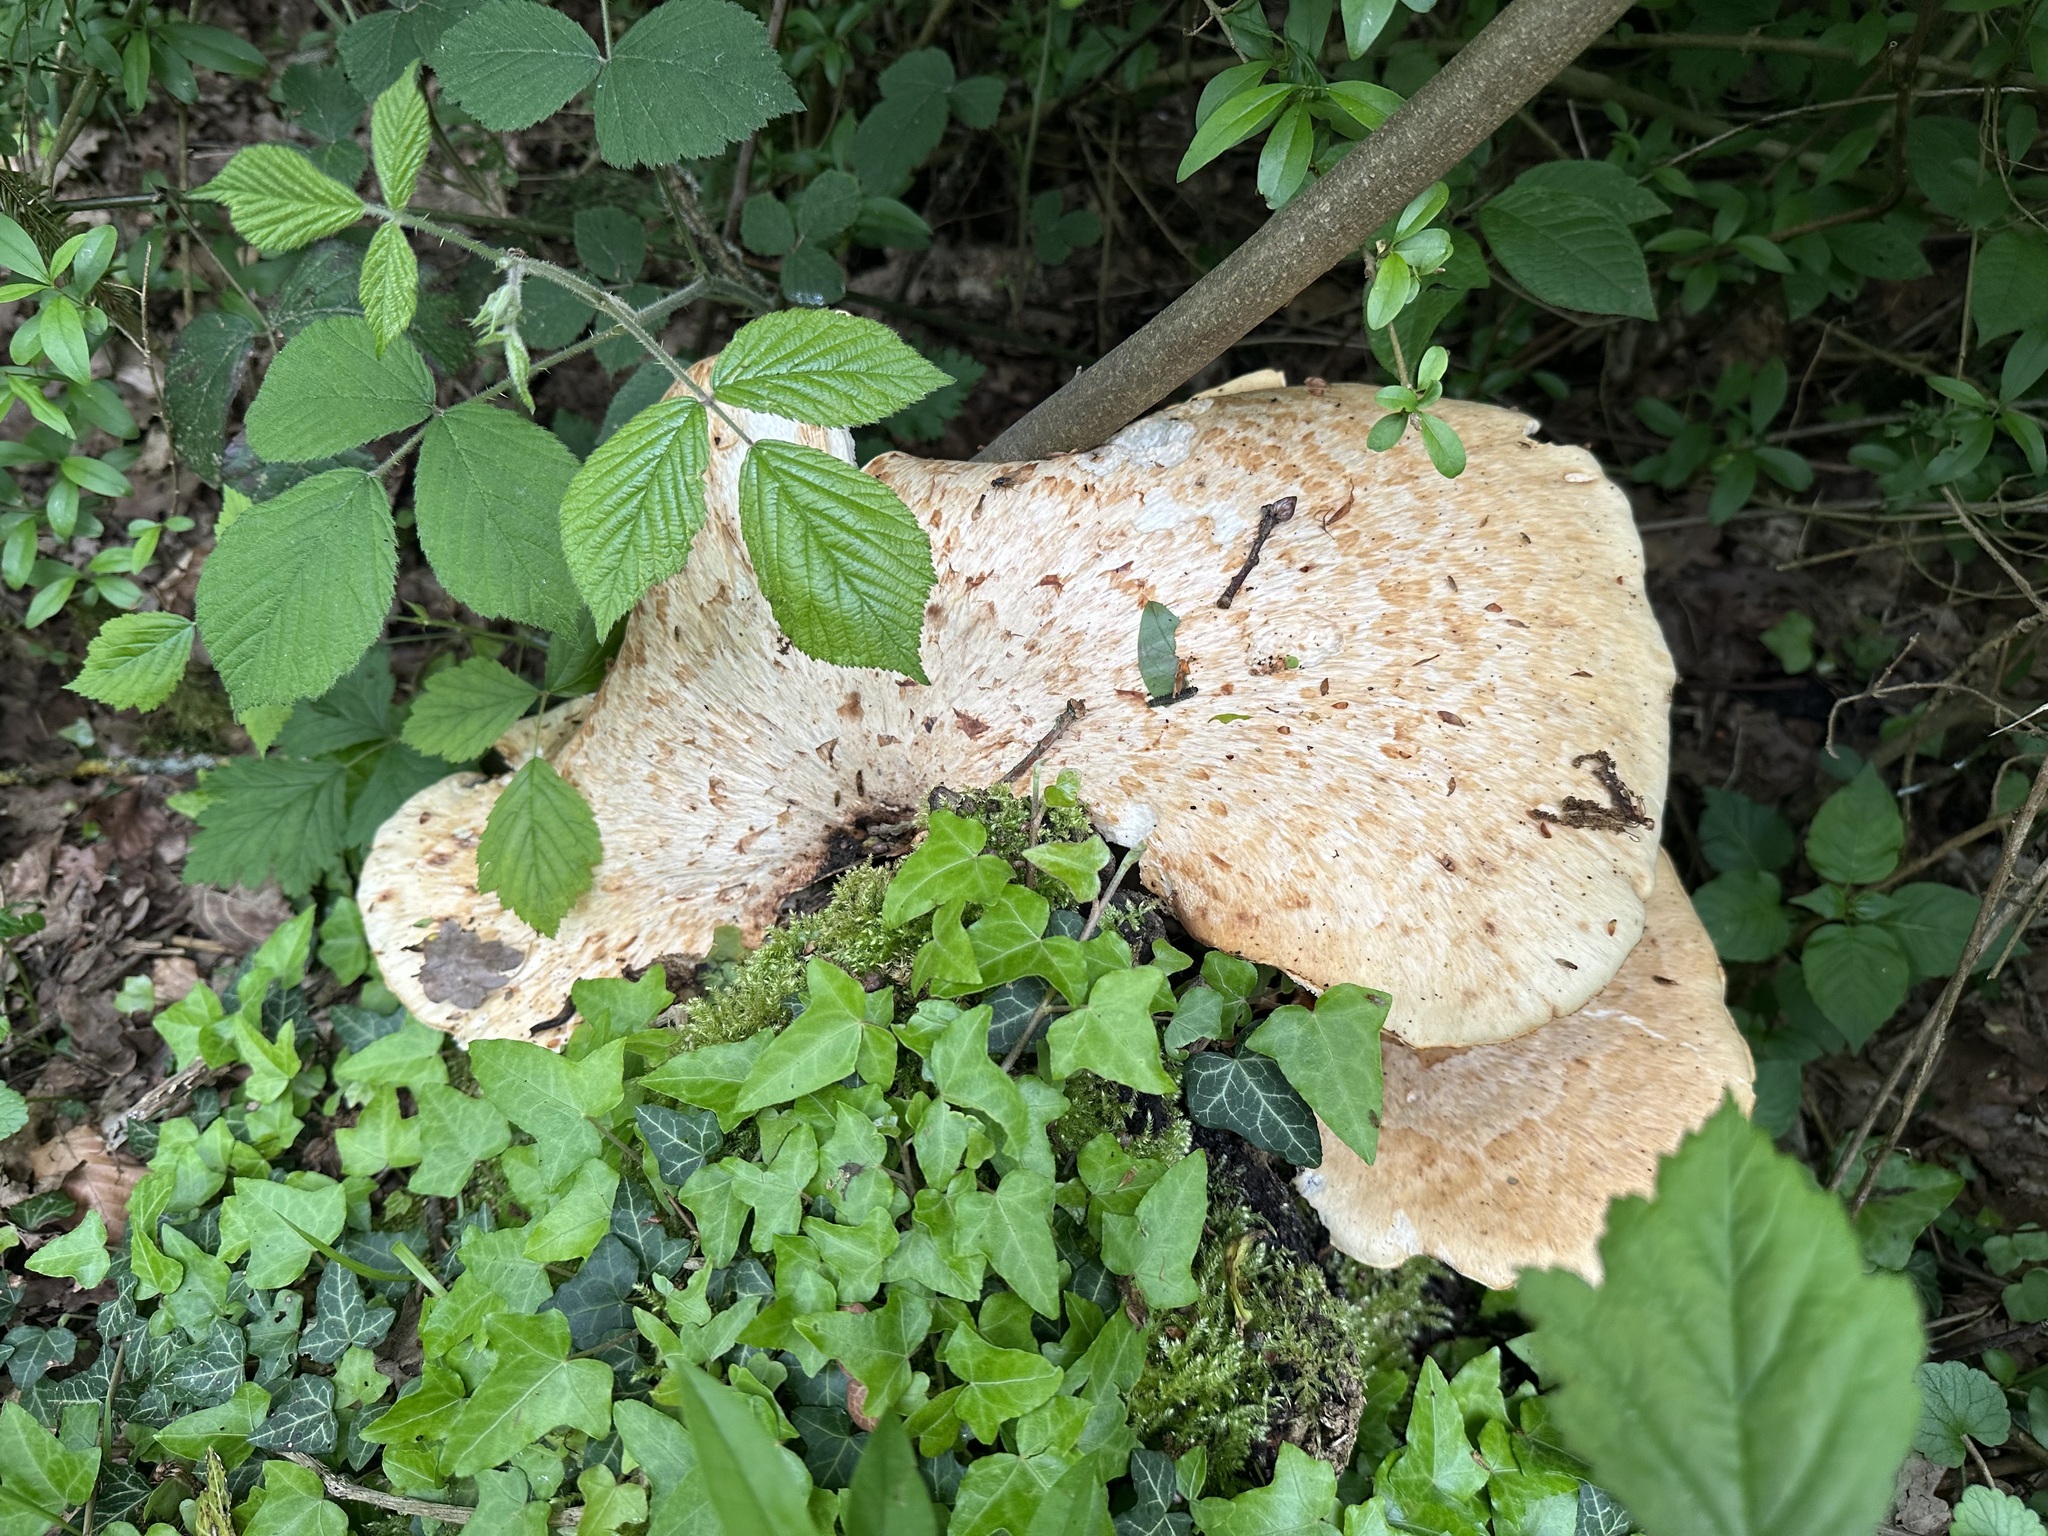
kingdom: Fungi
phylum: Basidiomycota
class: Agaricomycetes
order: Polyporales
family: Polyporaceae
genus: Cerioporus
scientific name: Cerioporus squamosus
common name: Dryad's saddle
